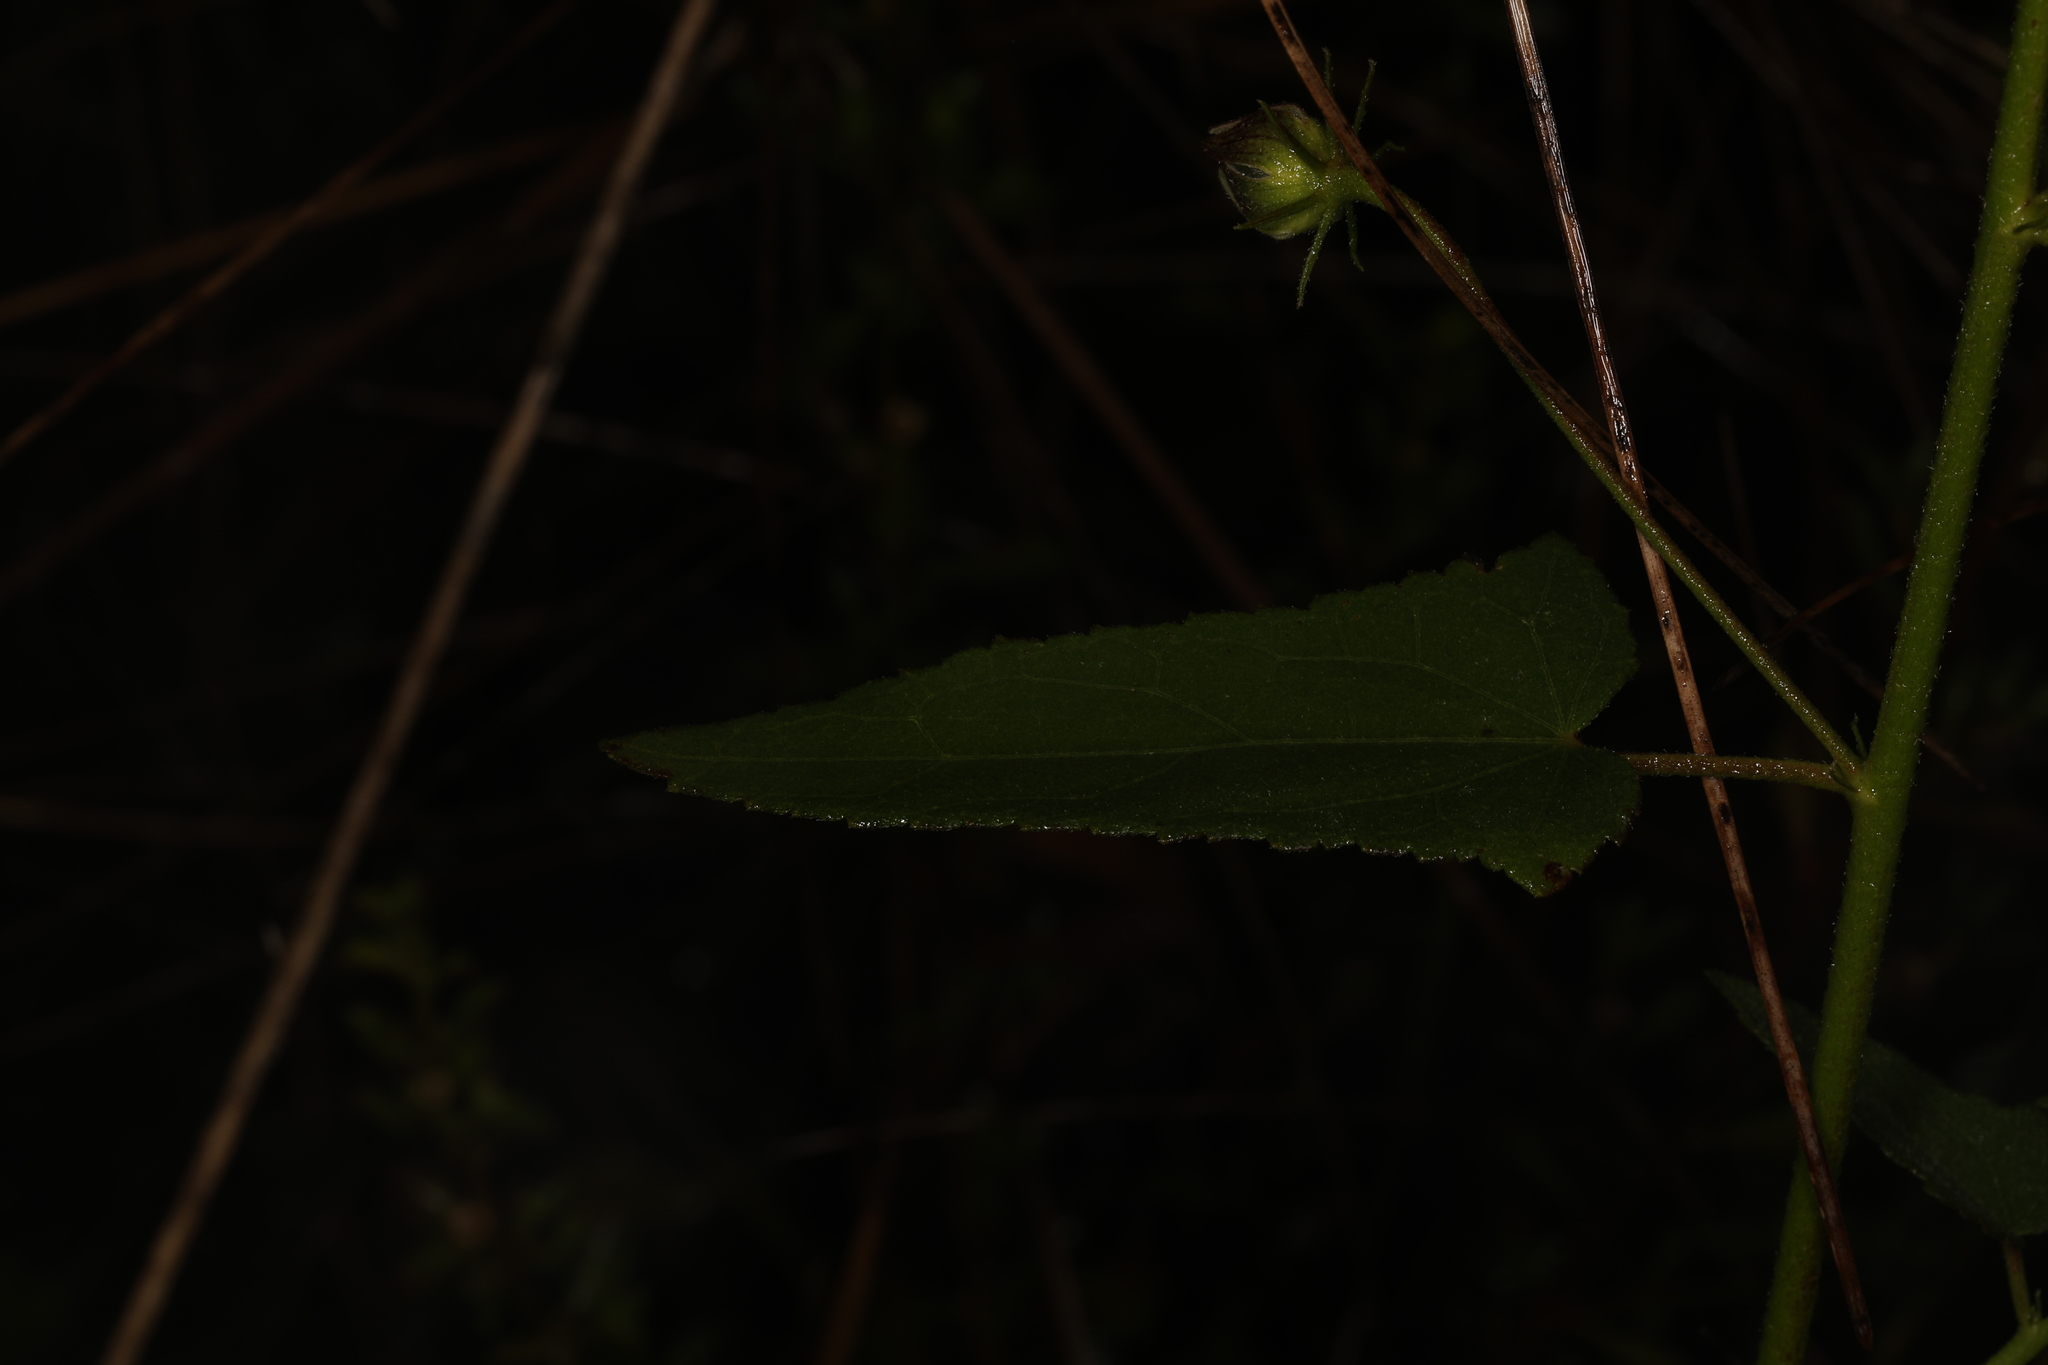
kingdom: Plantae
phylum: Tracheophyta
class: Magnoliopsida
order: Malvales
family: Malvaceae
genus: Kosteletzkya
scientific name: Kosteletzkya pentacarpos
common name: Virginia saltmarsh mallow
